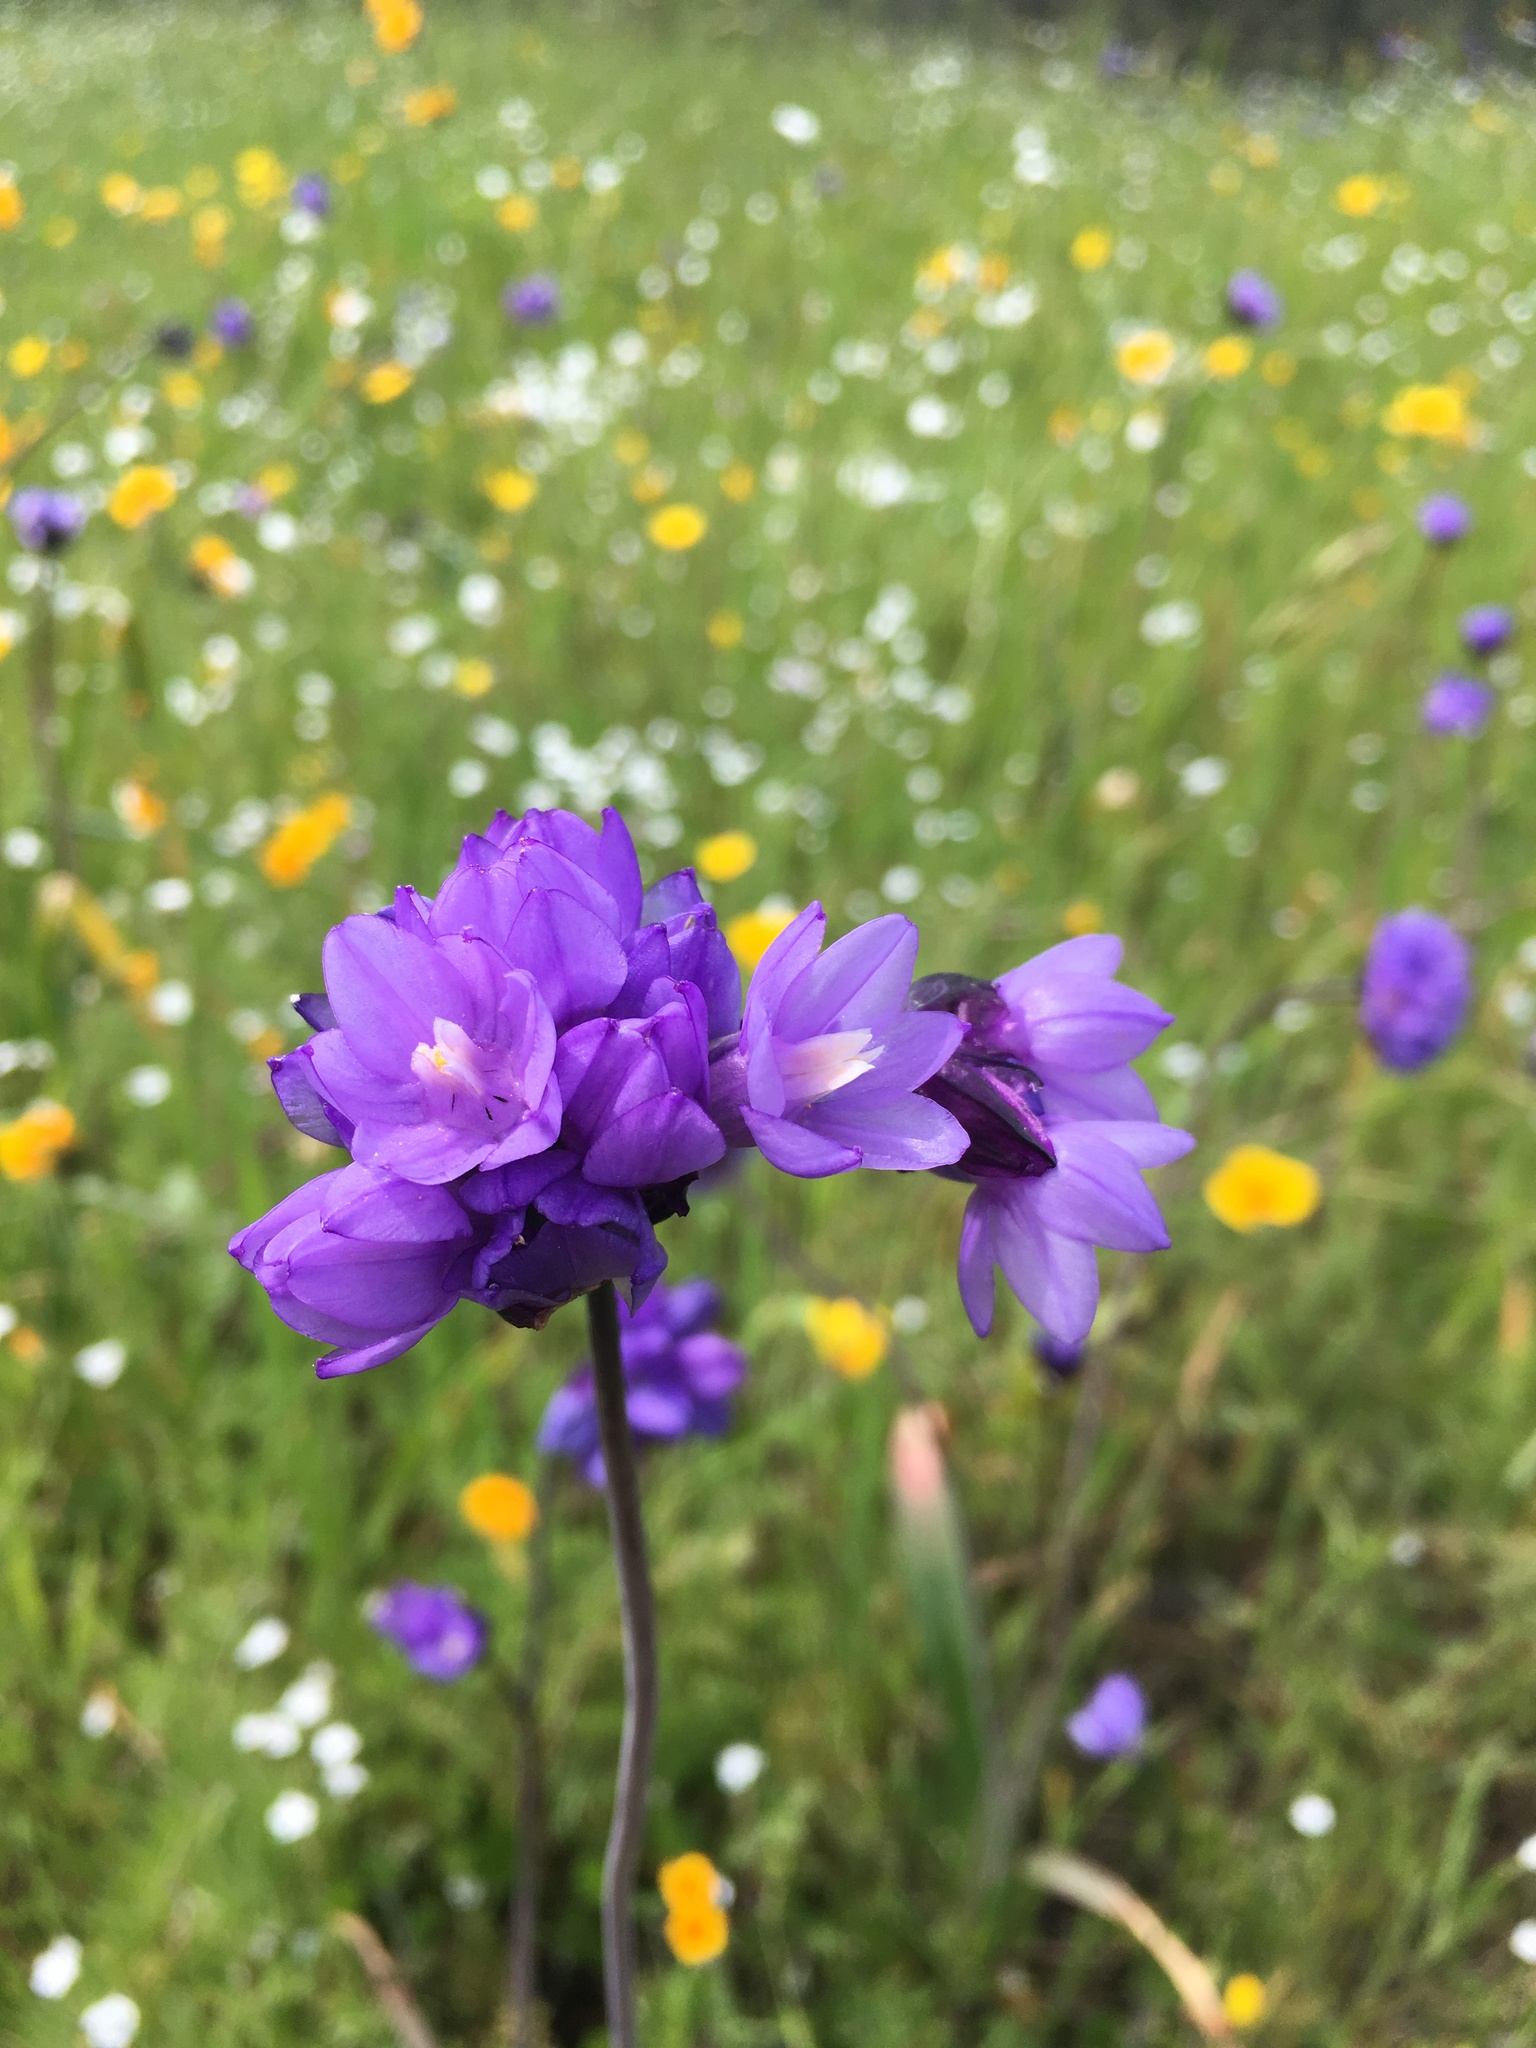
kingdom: Plantae
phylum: Tracheophyta
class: Liliopsida
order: Asparagales
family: Asparagaceae
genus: Dipterostemon
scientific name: Dipterostemon capitatus
